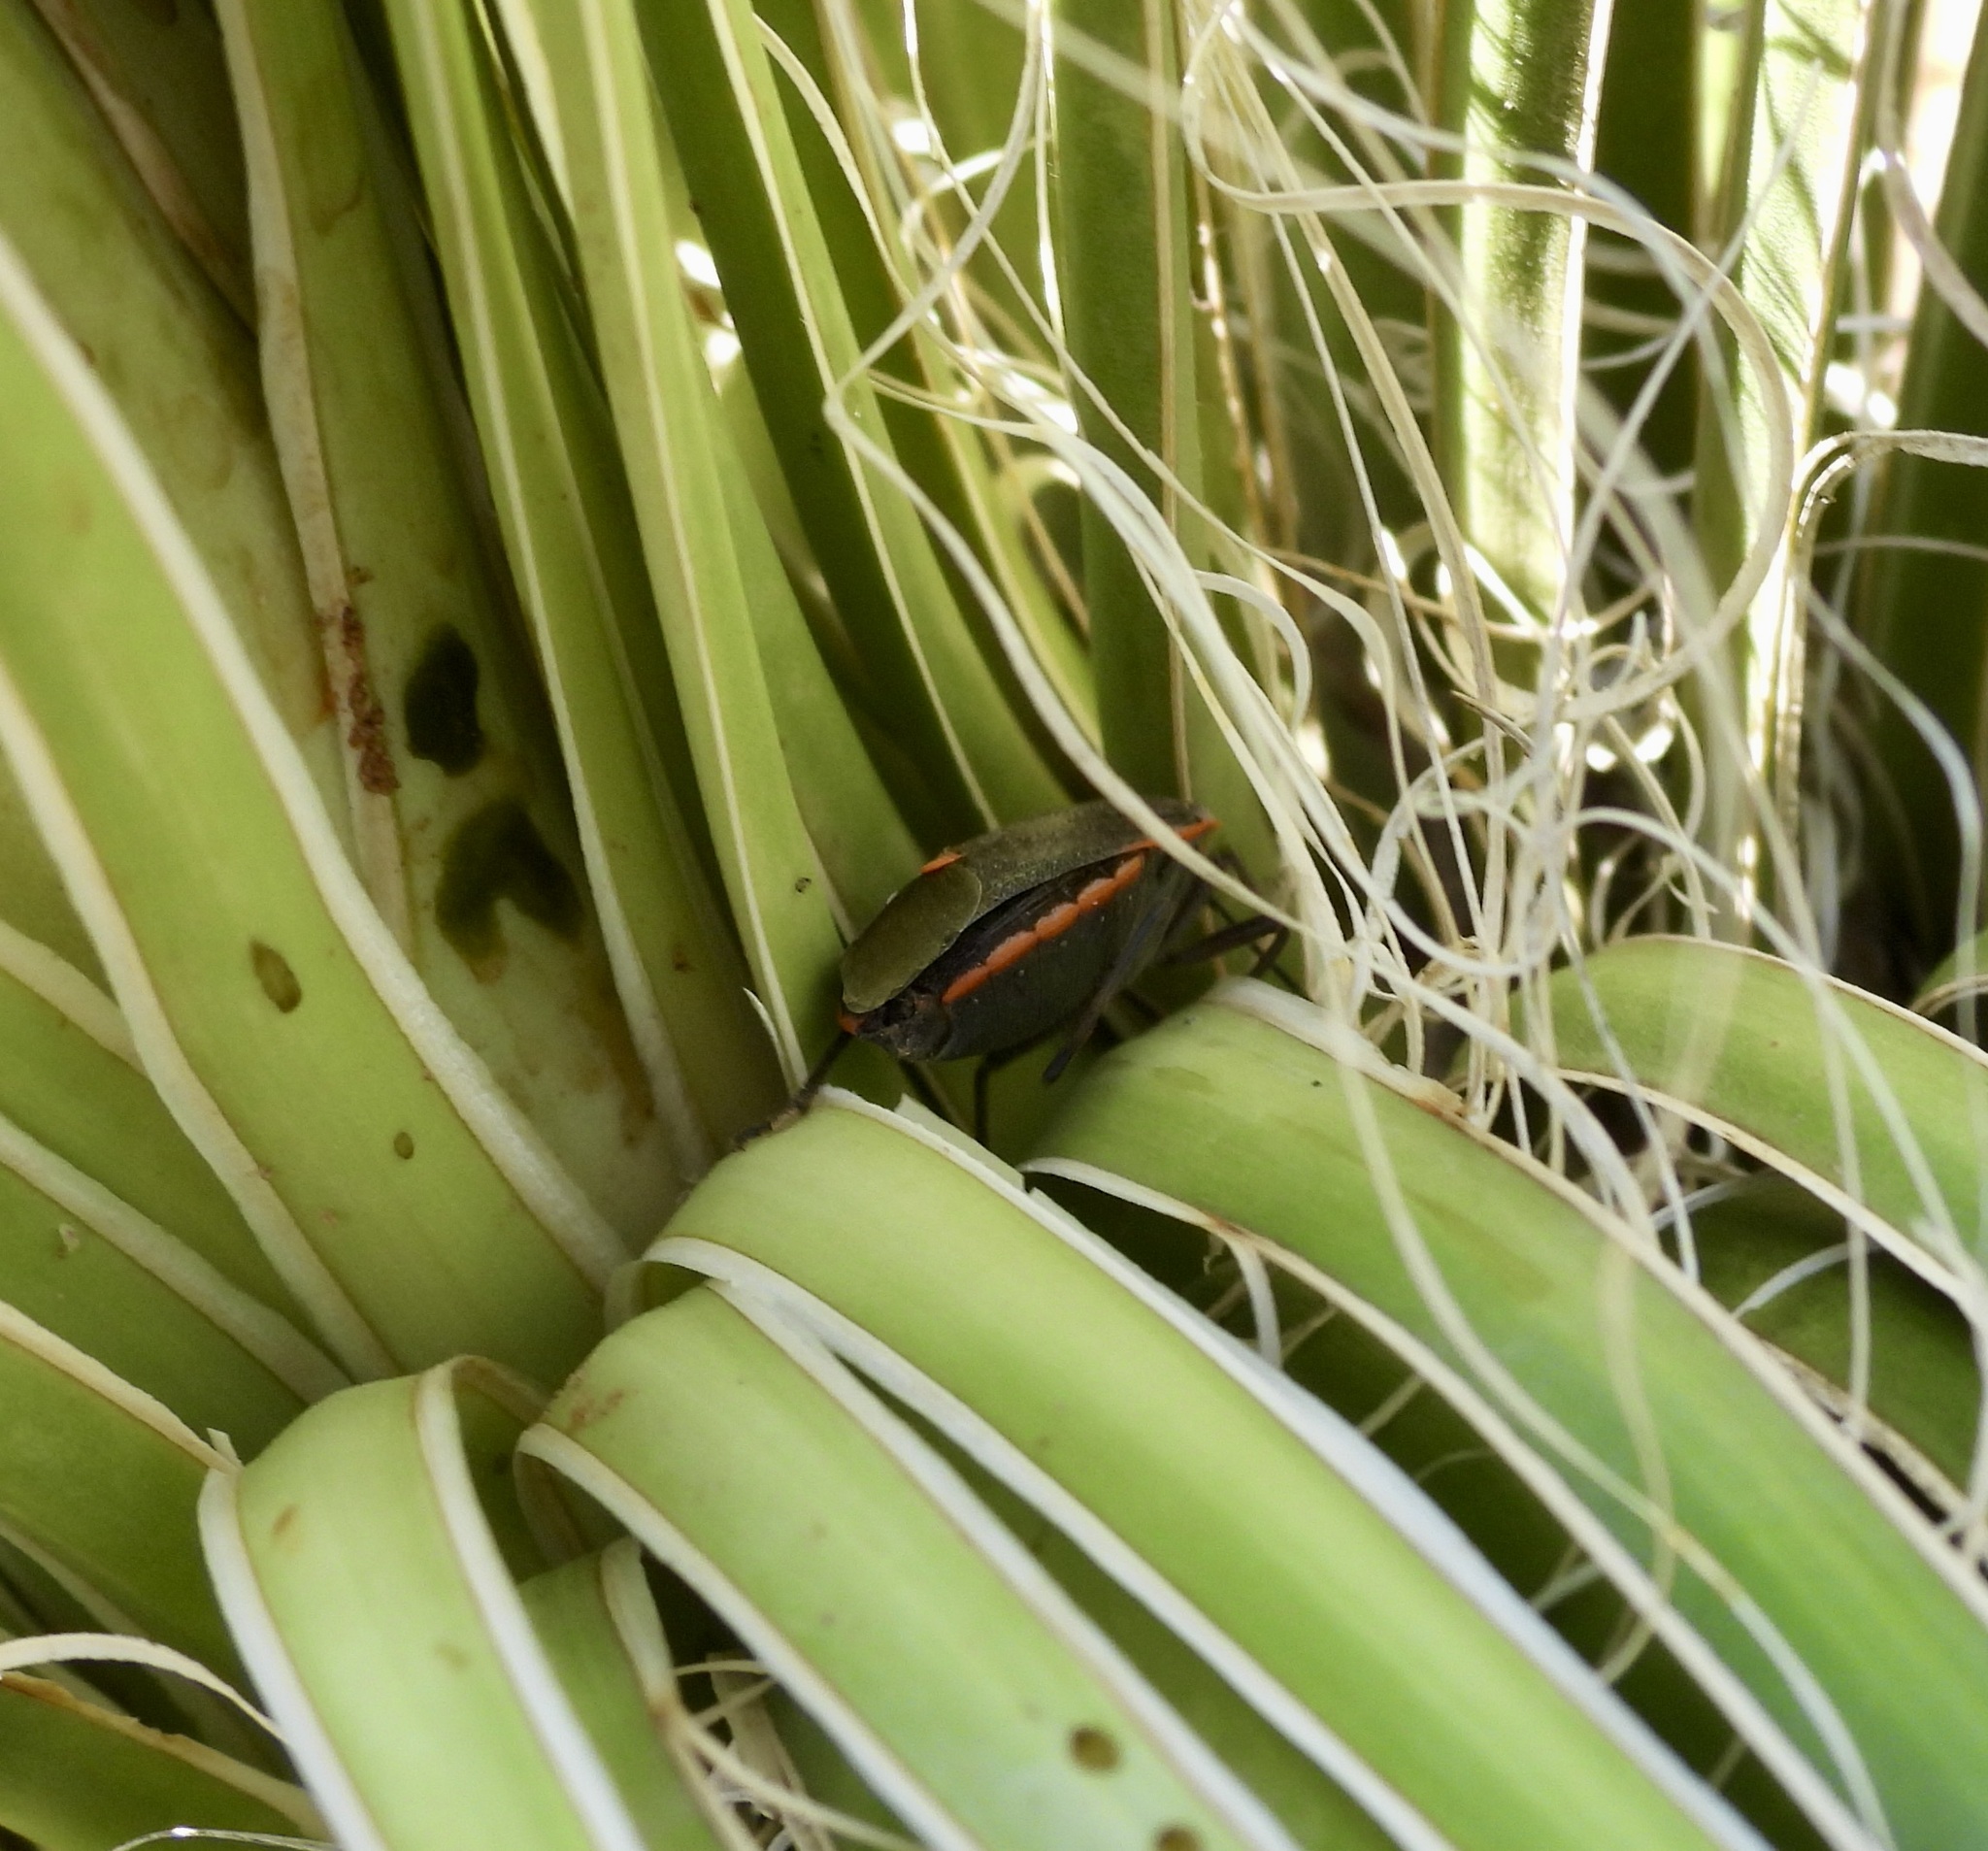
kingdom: Animalia
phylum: Arthropoda
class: Insecta
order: Hemiptera
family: Pentatomidae
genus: Chlorochroa
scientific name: Chlorochroa ligata
